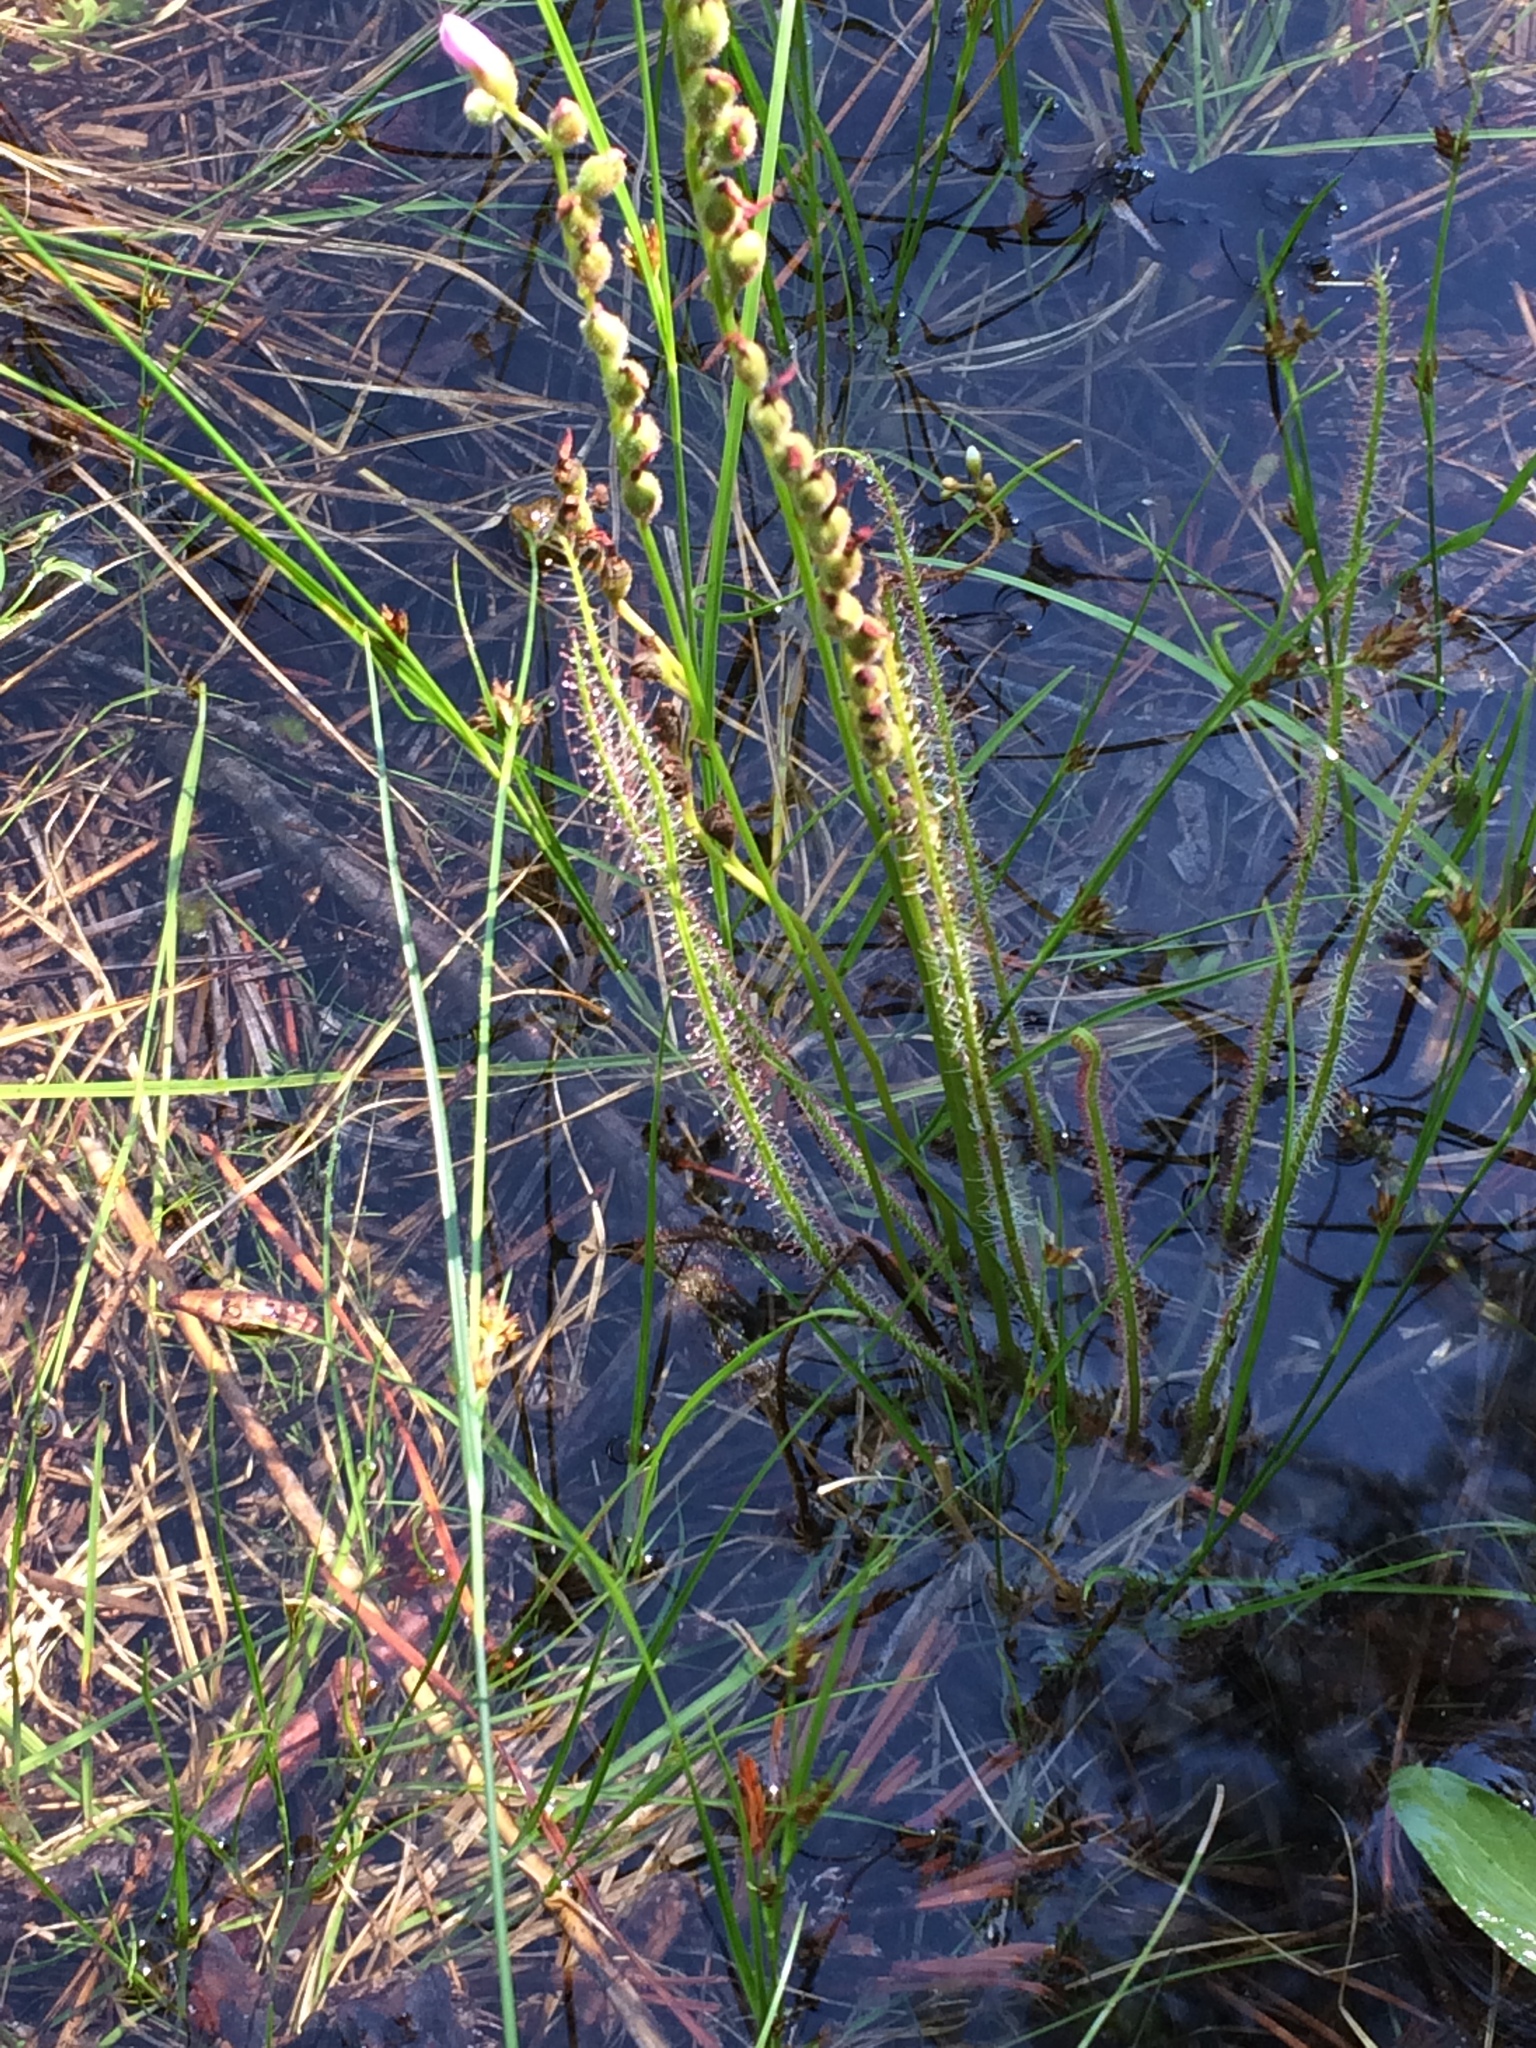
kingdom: Plantae
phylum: Tracheophyta
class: Magnoliopsida
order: Caryophyllales
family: Droseraceae
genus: Drosera
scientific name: Drosera filiformis
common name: Dew-thread
